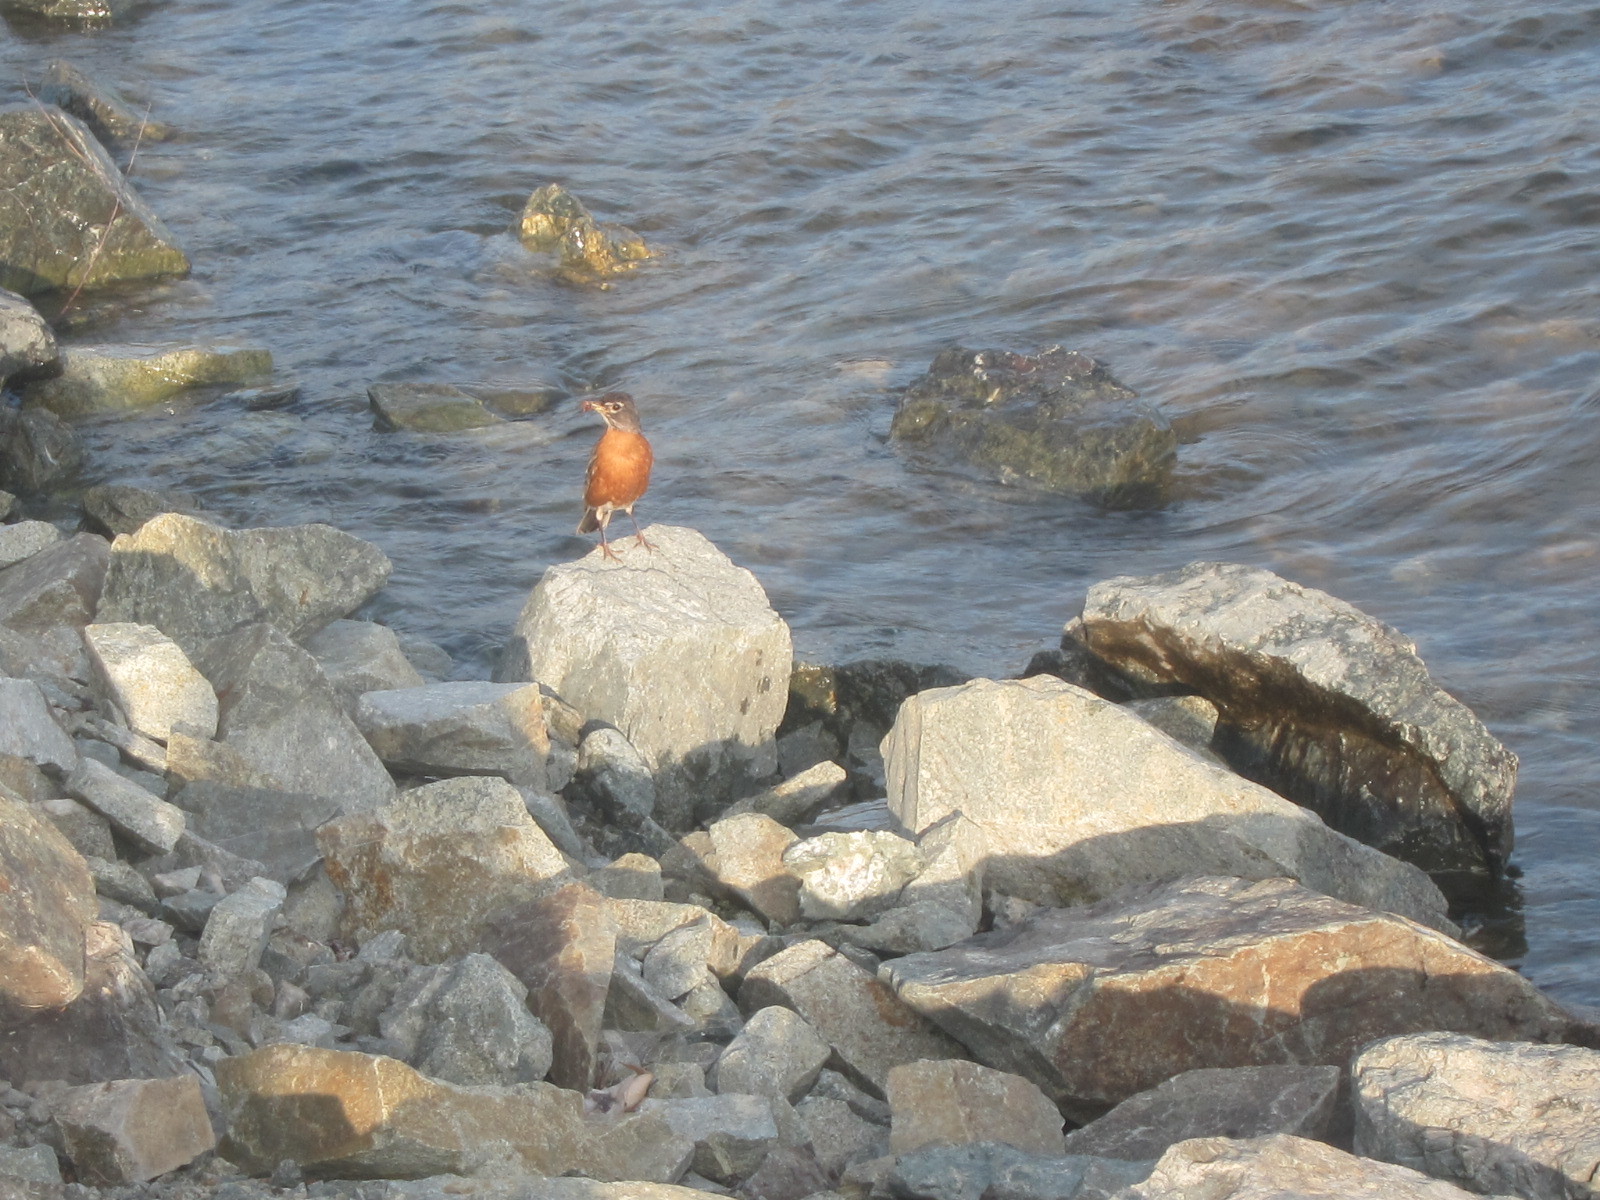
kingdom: Animalia
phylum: Chordata
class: Aves
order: Passeriformes
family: Turdidae
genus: Turdus
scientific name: Turdus migratorius
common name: American robin
